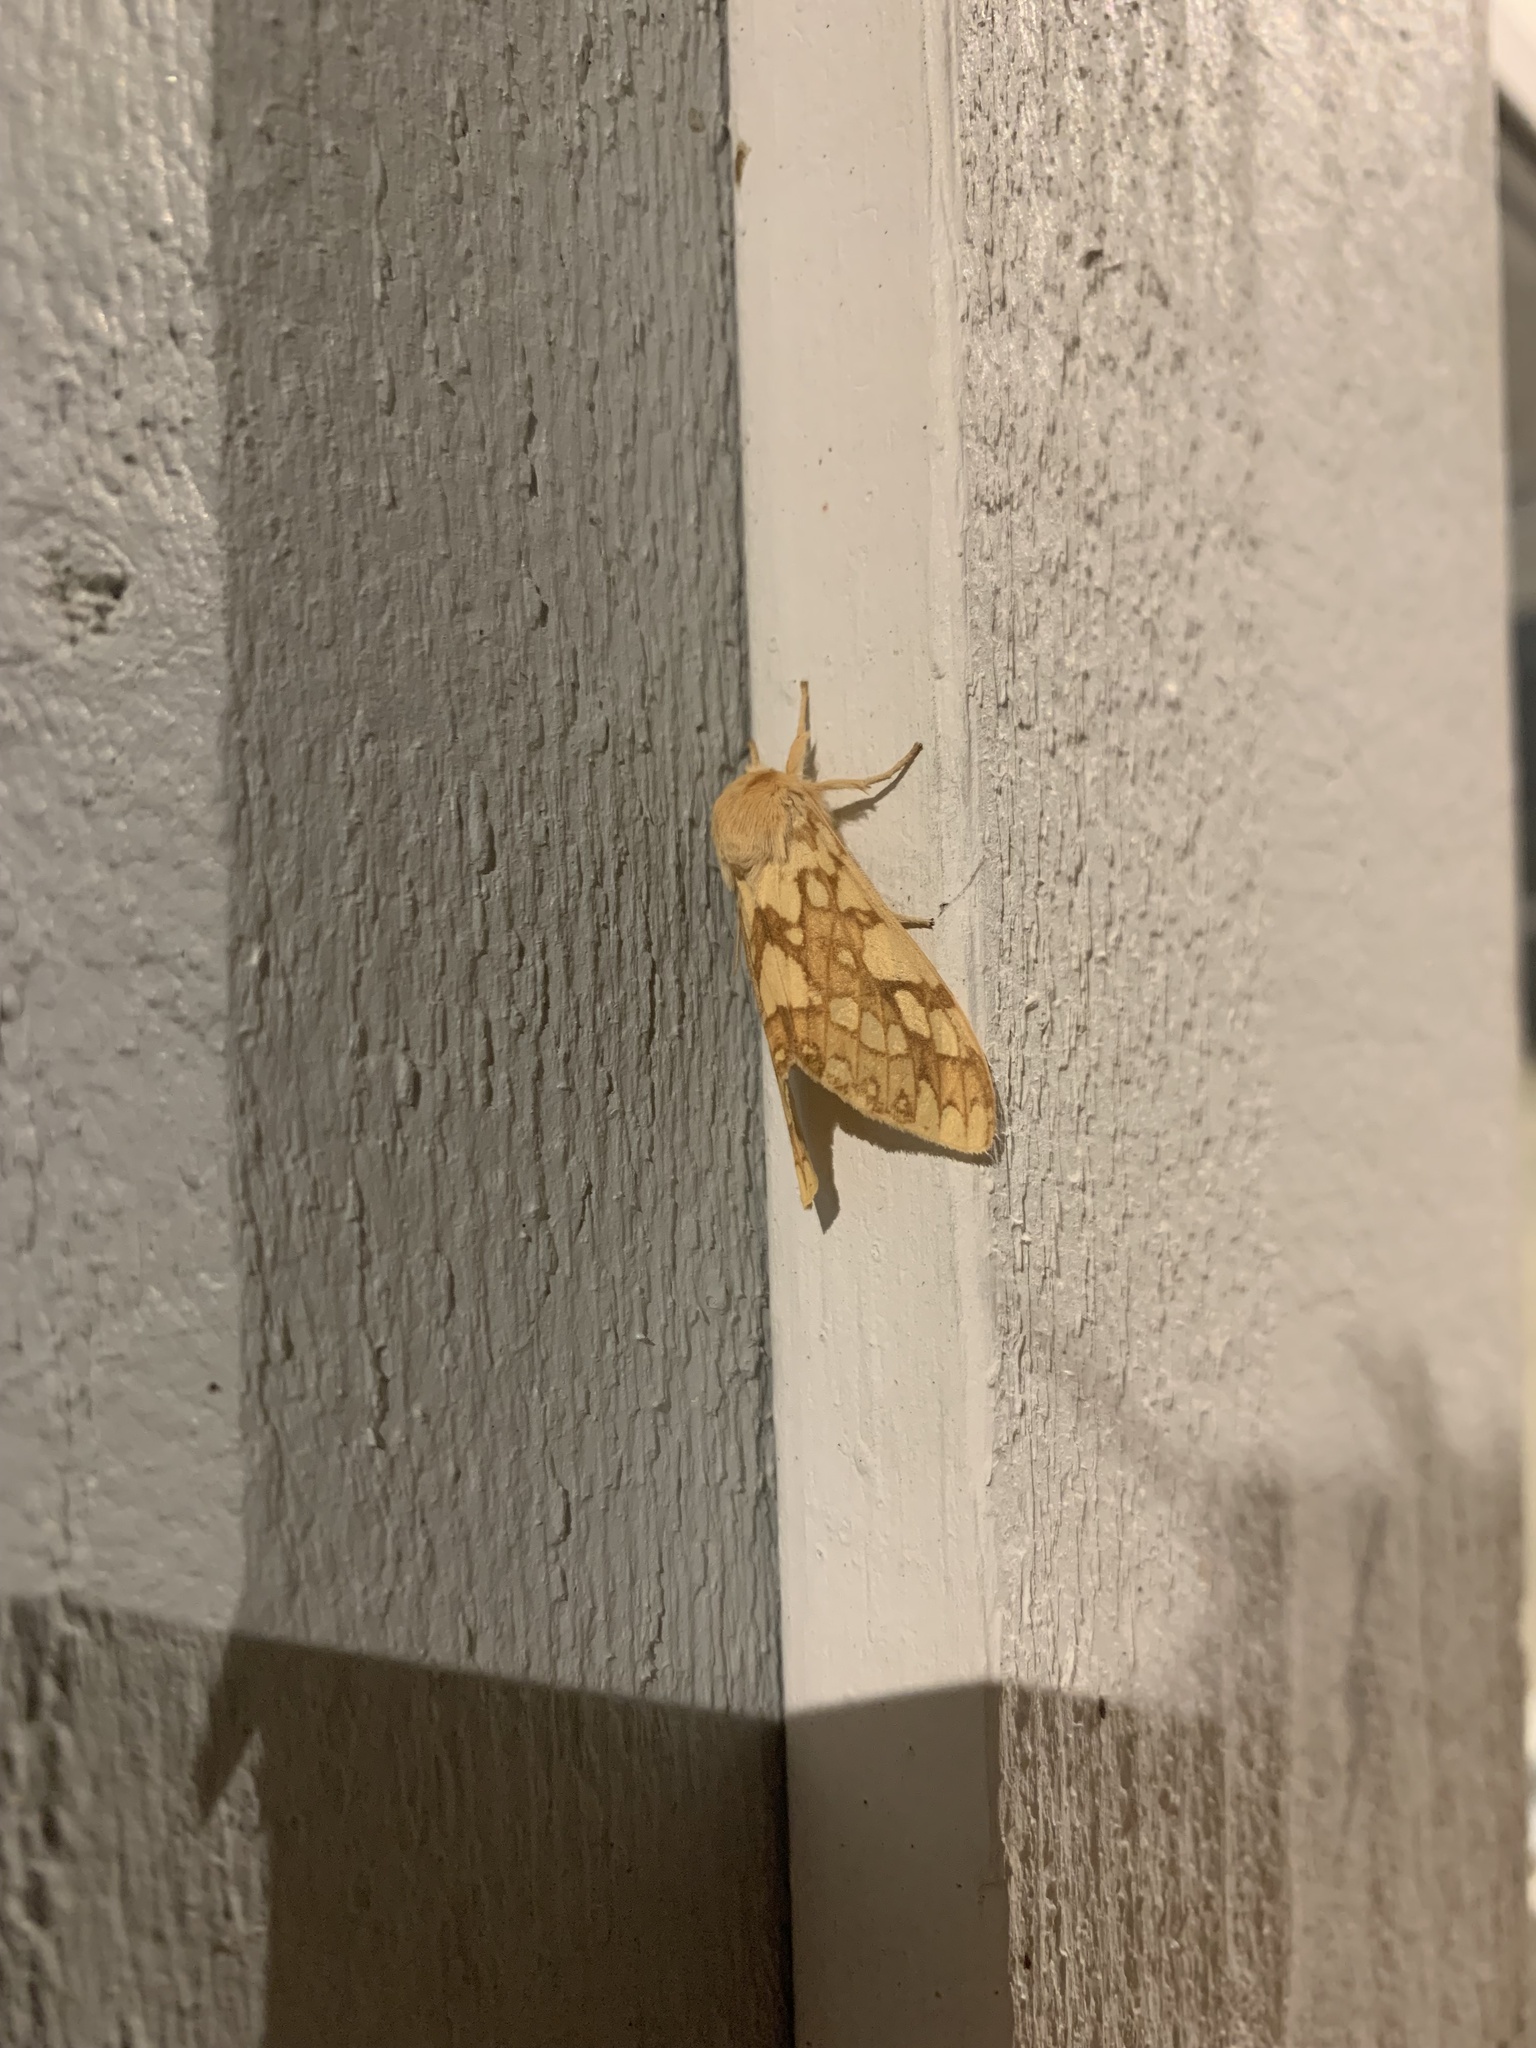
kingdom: Animalia
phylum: Arthropoda
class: Insecta
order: Lepidoptera
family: Erebidae
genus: Lophocampa
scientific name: Lophocampa maculata
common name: Spotted tussock moth
